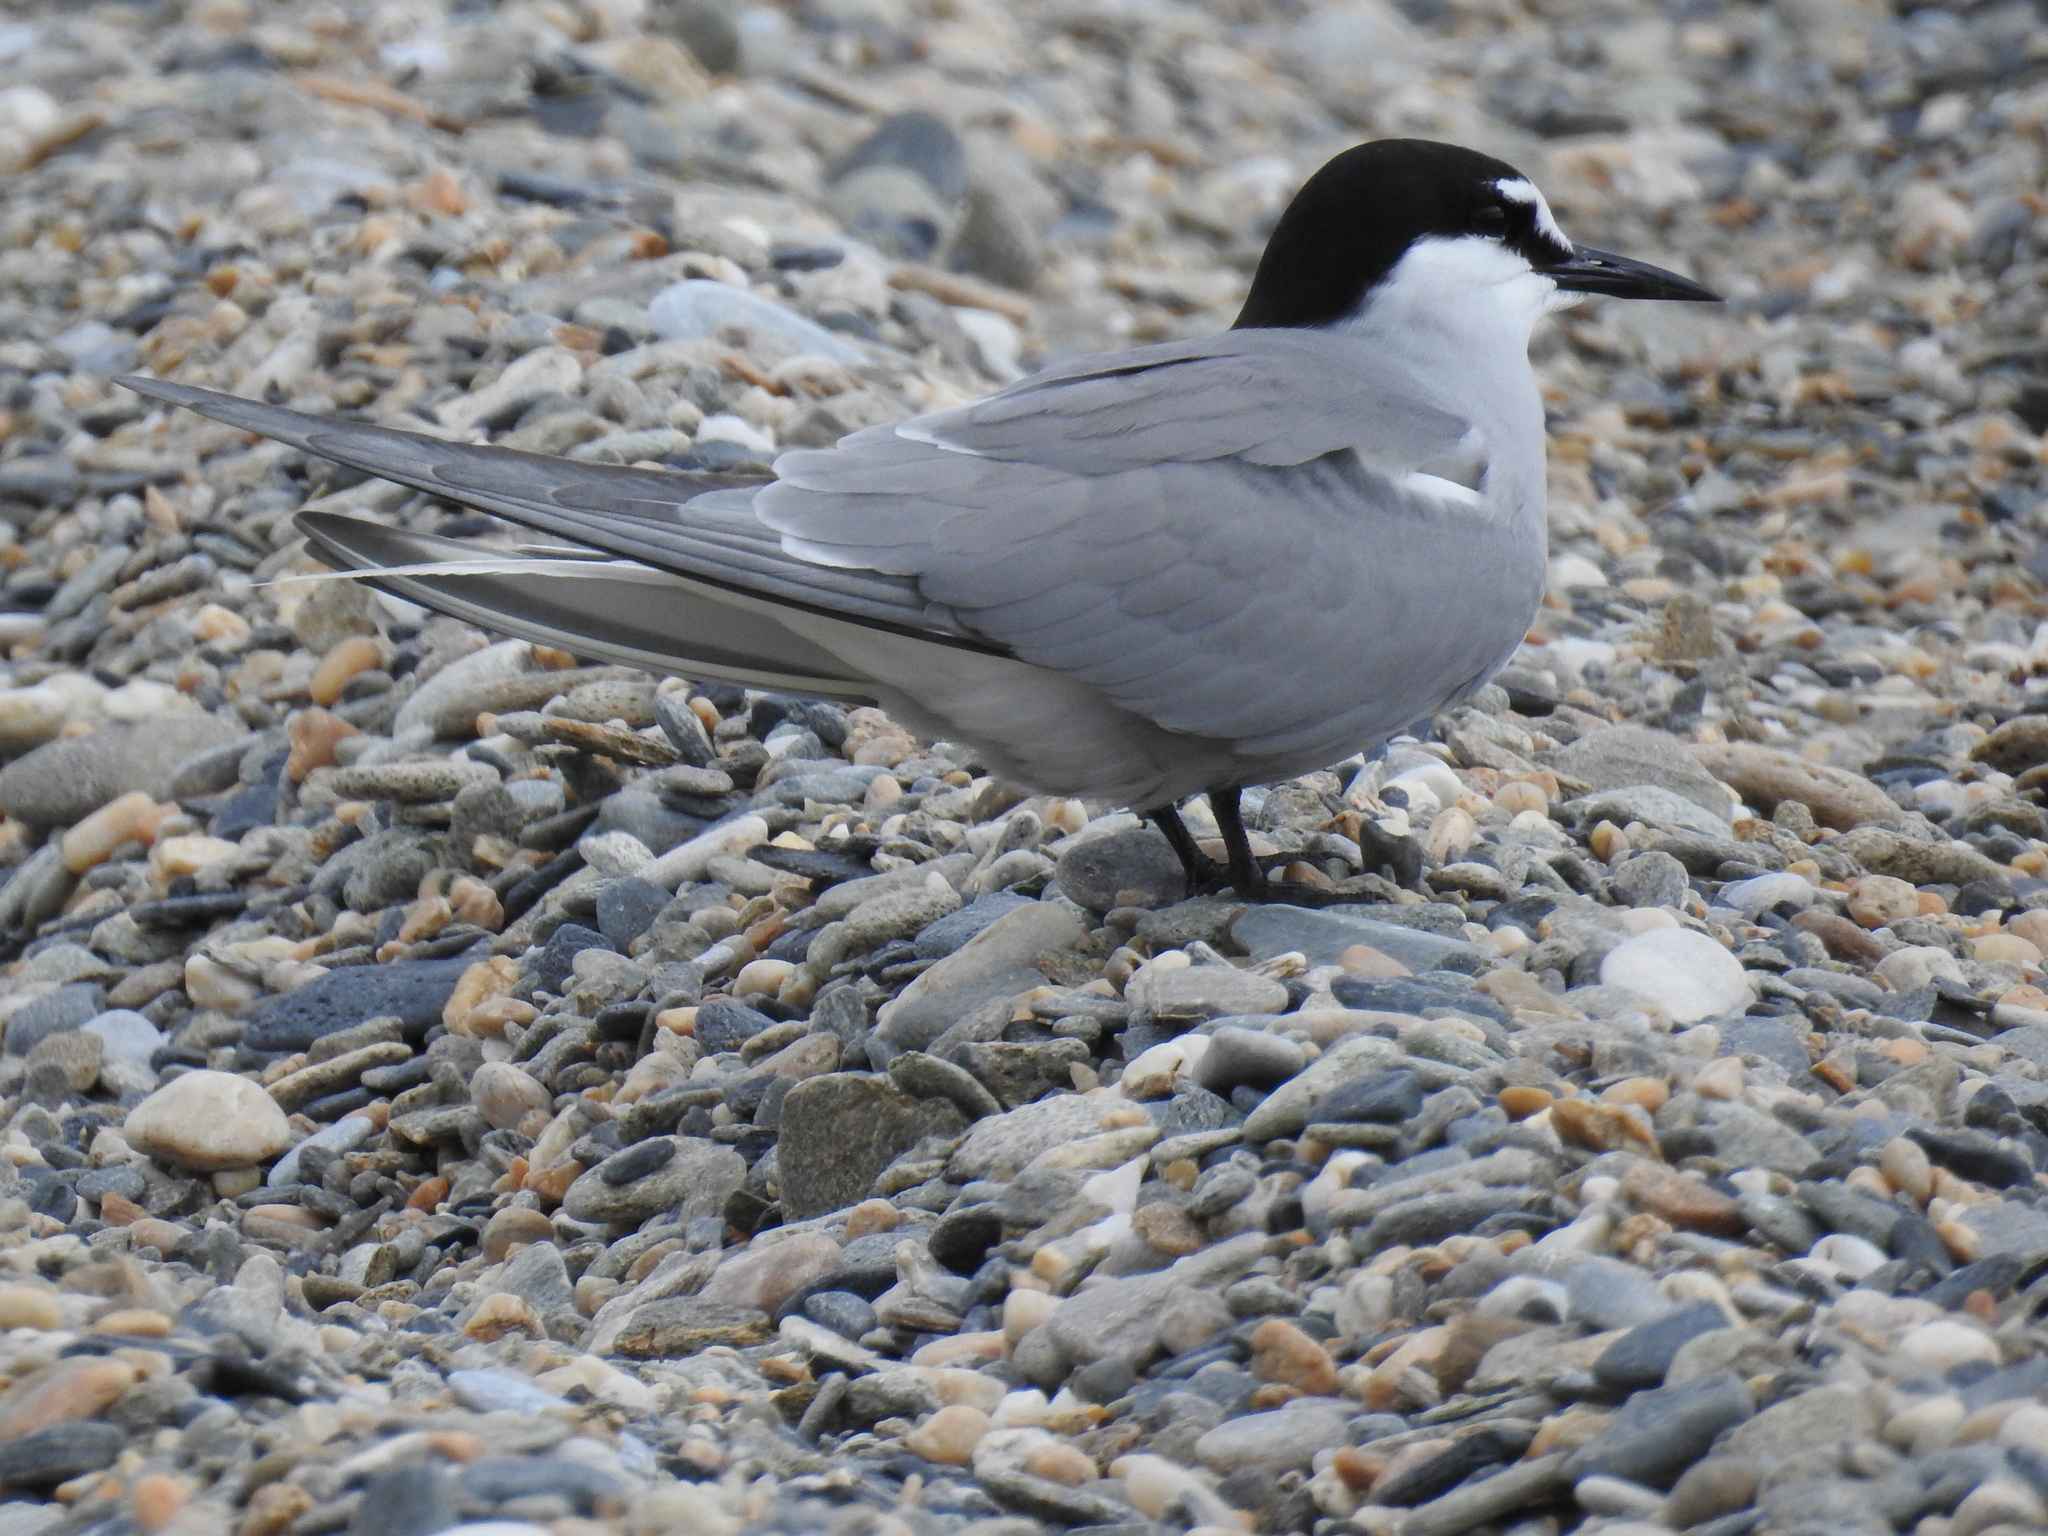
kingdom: Animalia
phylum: Chordata
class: Aves
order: Charadriiformes
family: Laridae
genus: Onychoprion
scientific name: Onychoprion aleuticus
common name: Aleutian tern
